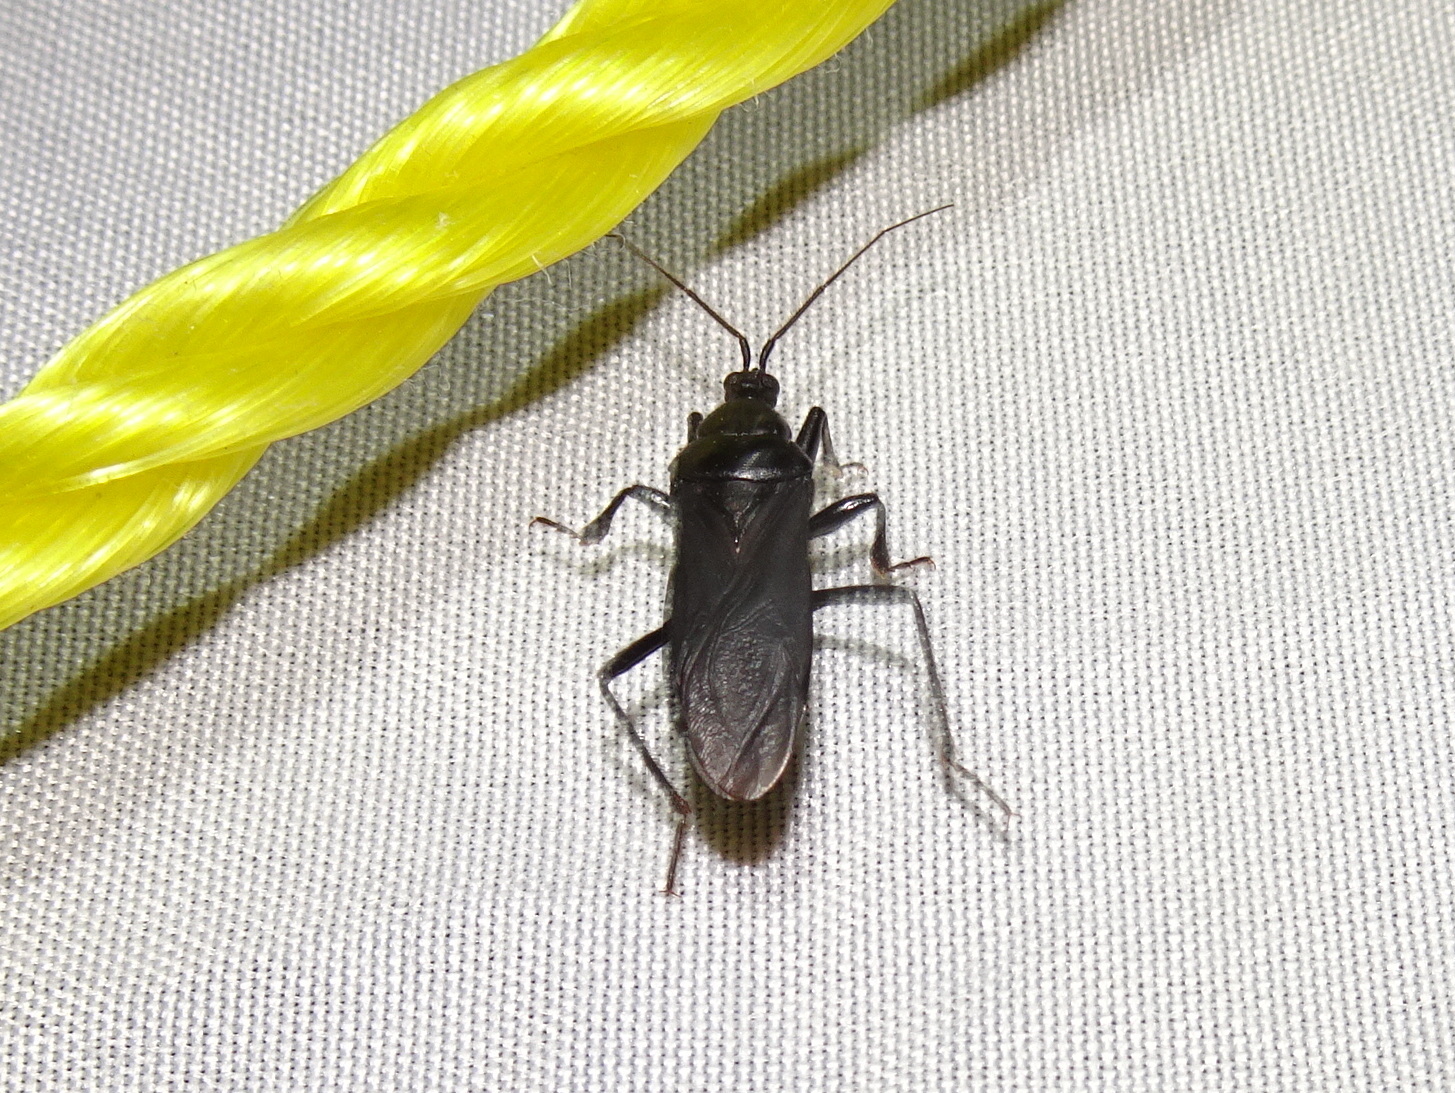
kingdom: Animalia
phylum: Arthropoda
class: Insecta
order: Hemiptera
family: Reduviidae
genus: Melanolestes
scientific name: Melanolestes picipes
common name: Assassin bug
